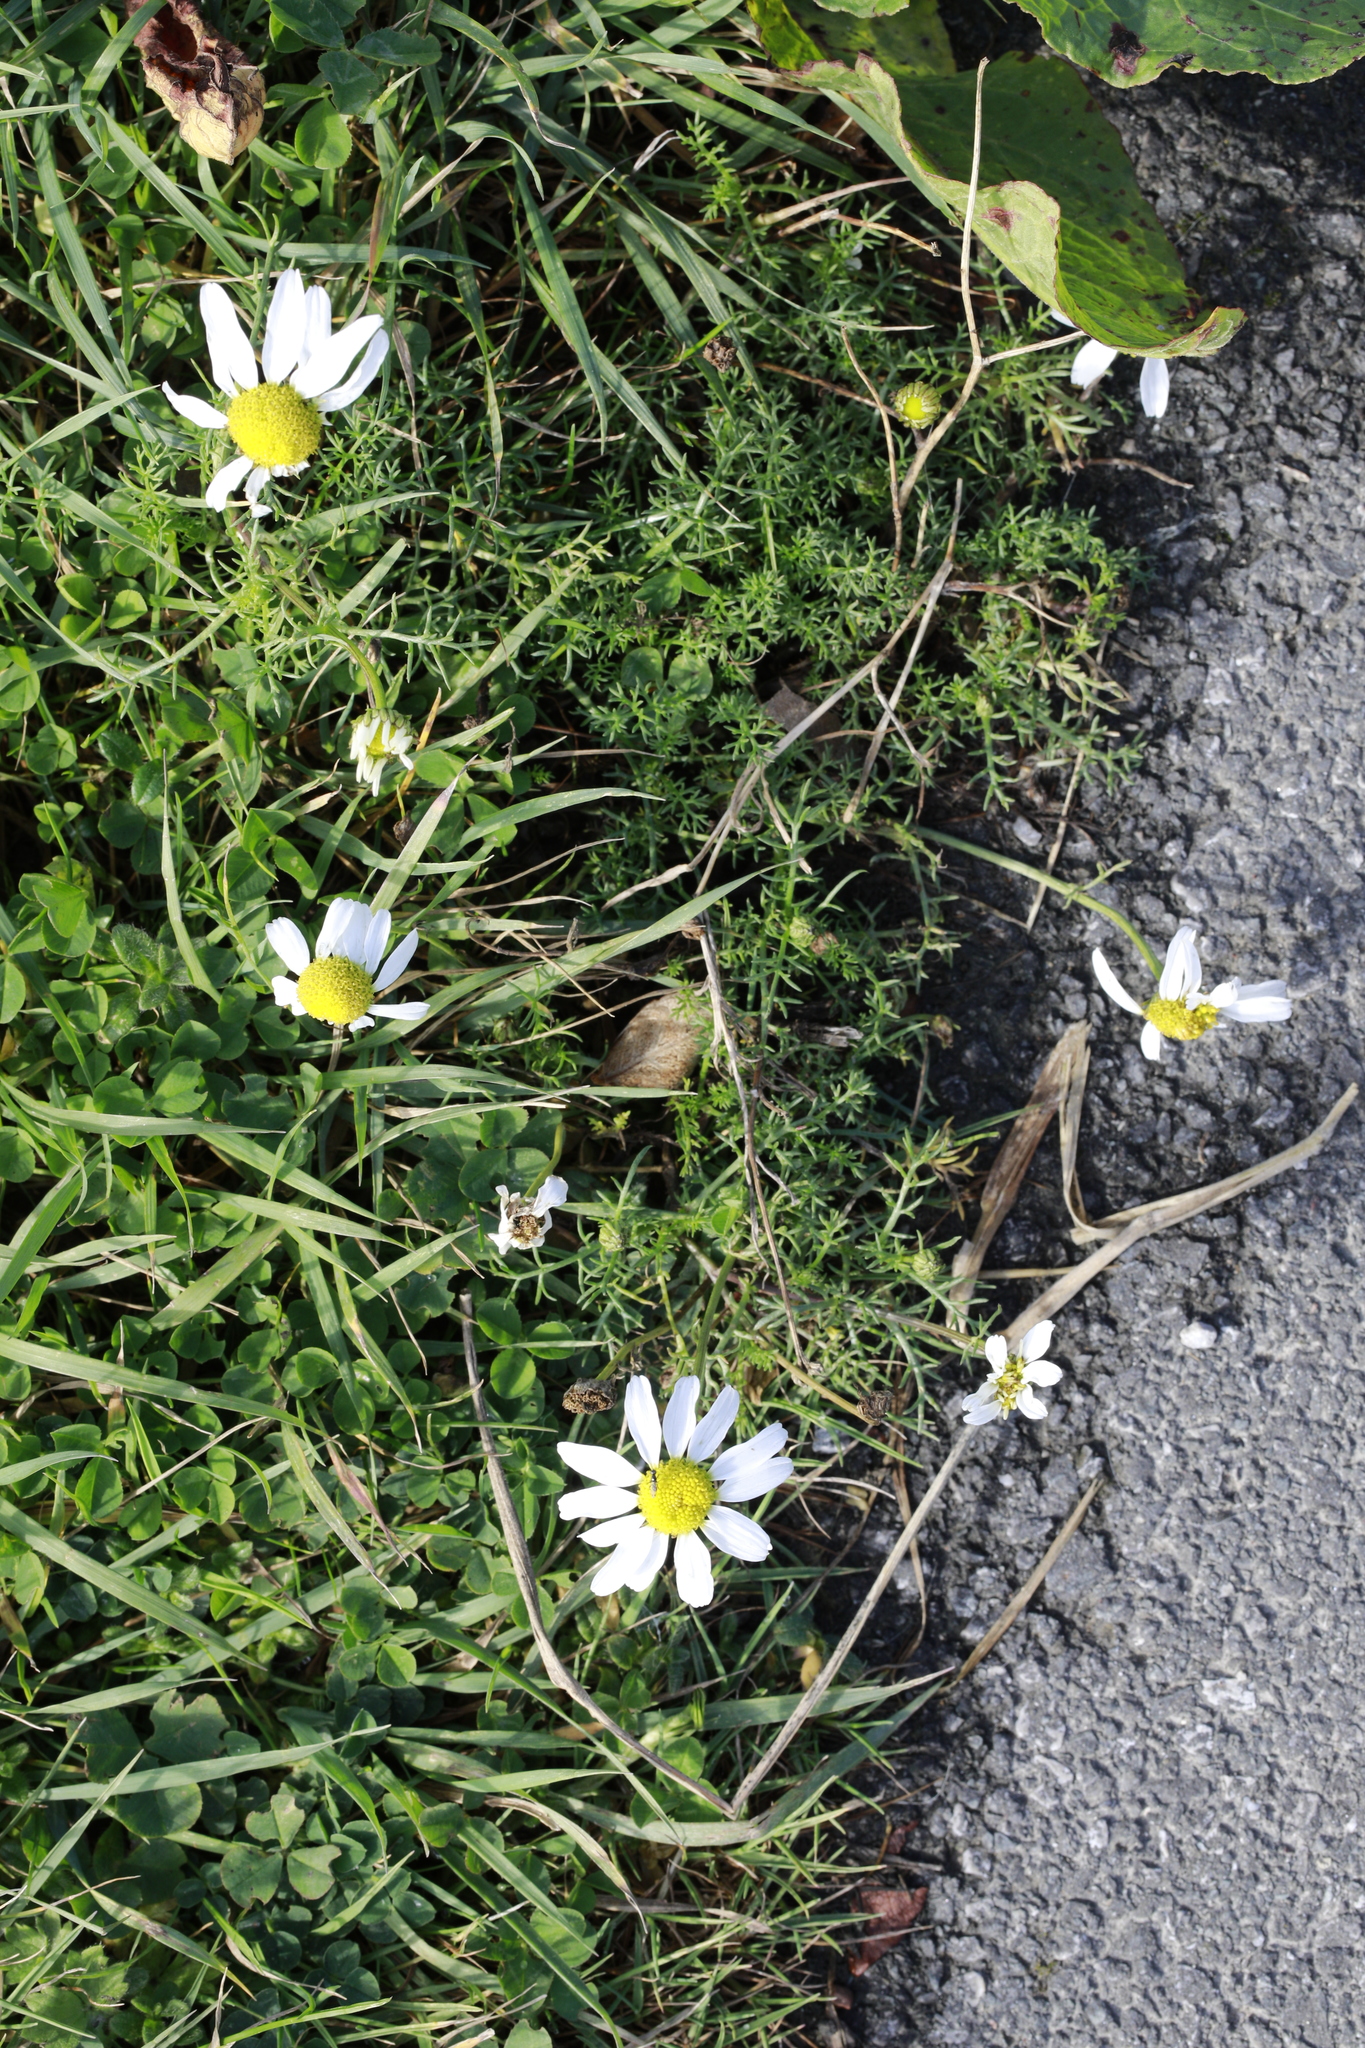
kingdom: Plantae
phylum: Tracheophyta
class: Magnoliopsida
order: Asterales
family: Asteraceae
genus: Tripleurospermum
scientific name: Tripleurospermum inodorum
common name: Scentless mayweed
